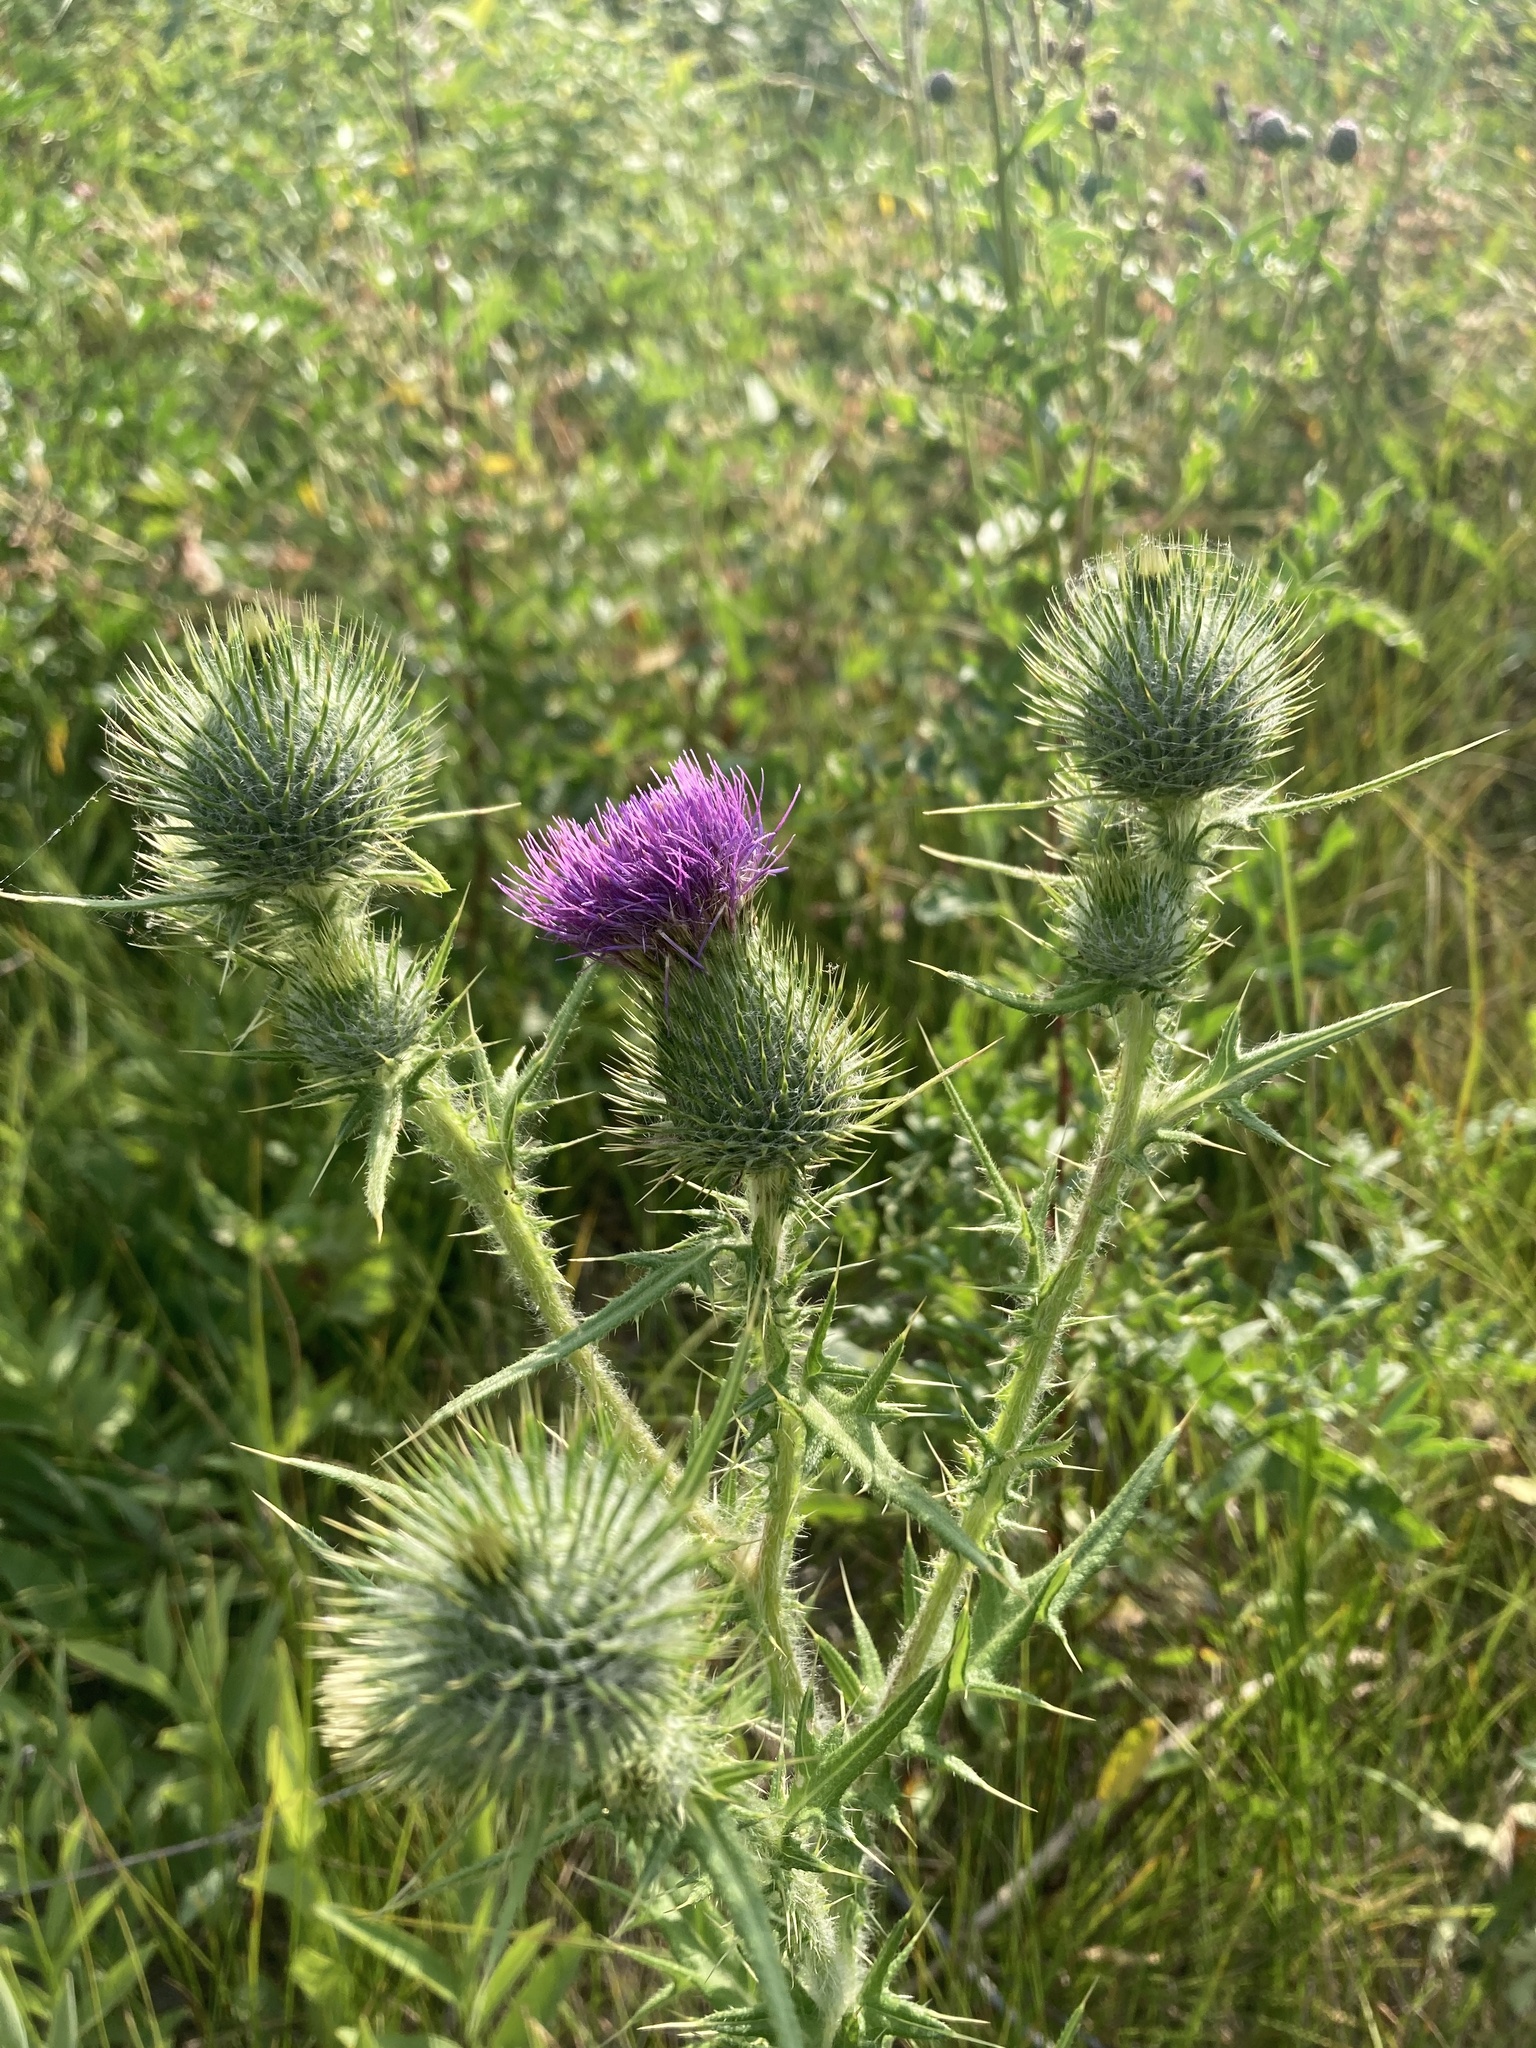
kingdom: Plantae
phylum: Tracheophyta
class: Magnoliopsida
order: Asterales
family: Asteraceae
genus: Cirsium
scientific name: Cirsium vulgare
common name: Bull thistle
